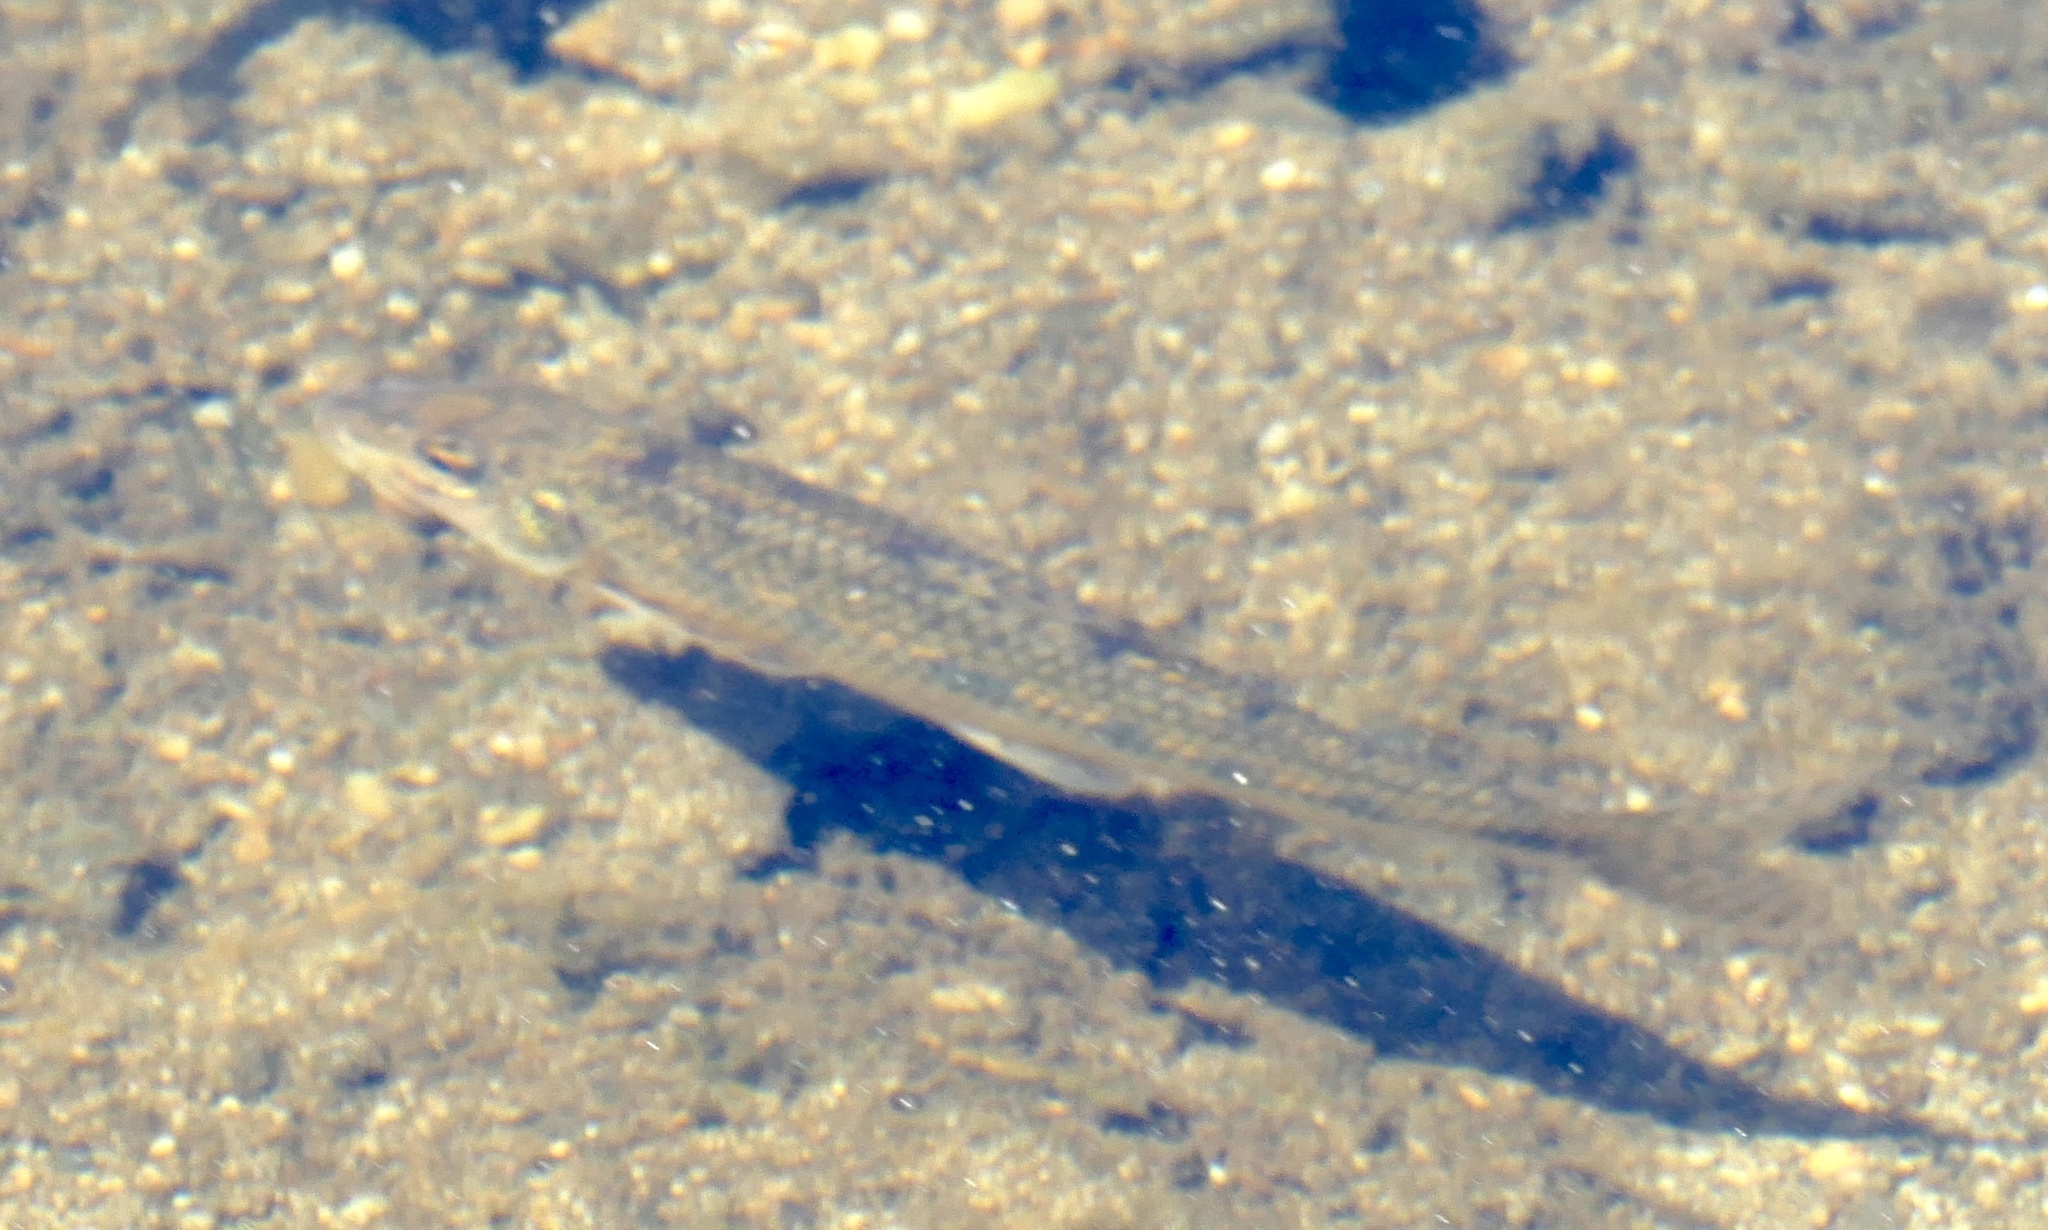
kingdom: Animalia
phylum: Chordata
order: Cypriniformes
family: Cyprinidae
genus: Gobio
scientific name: Gobio gobio
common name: Gudgeon
